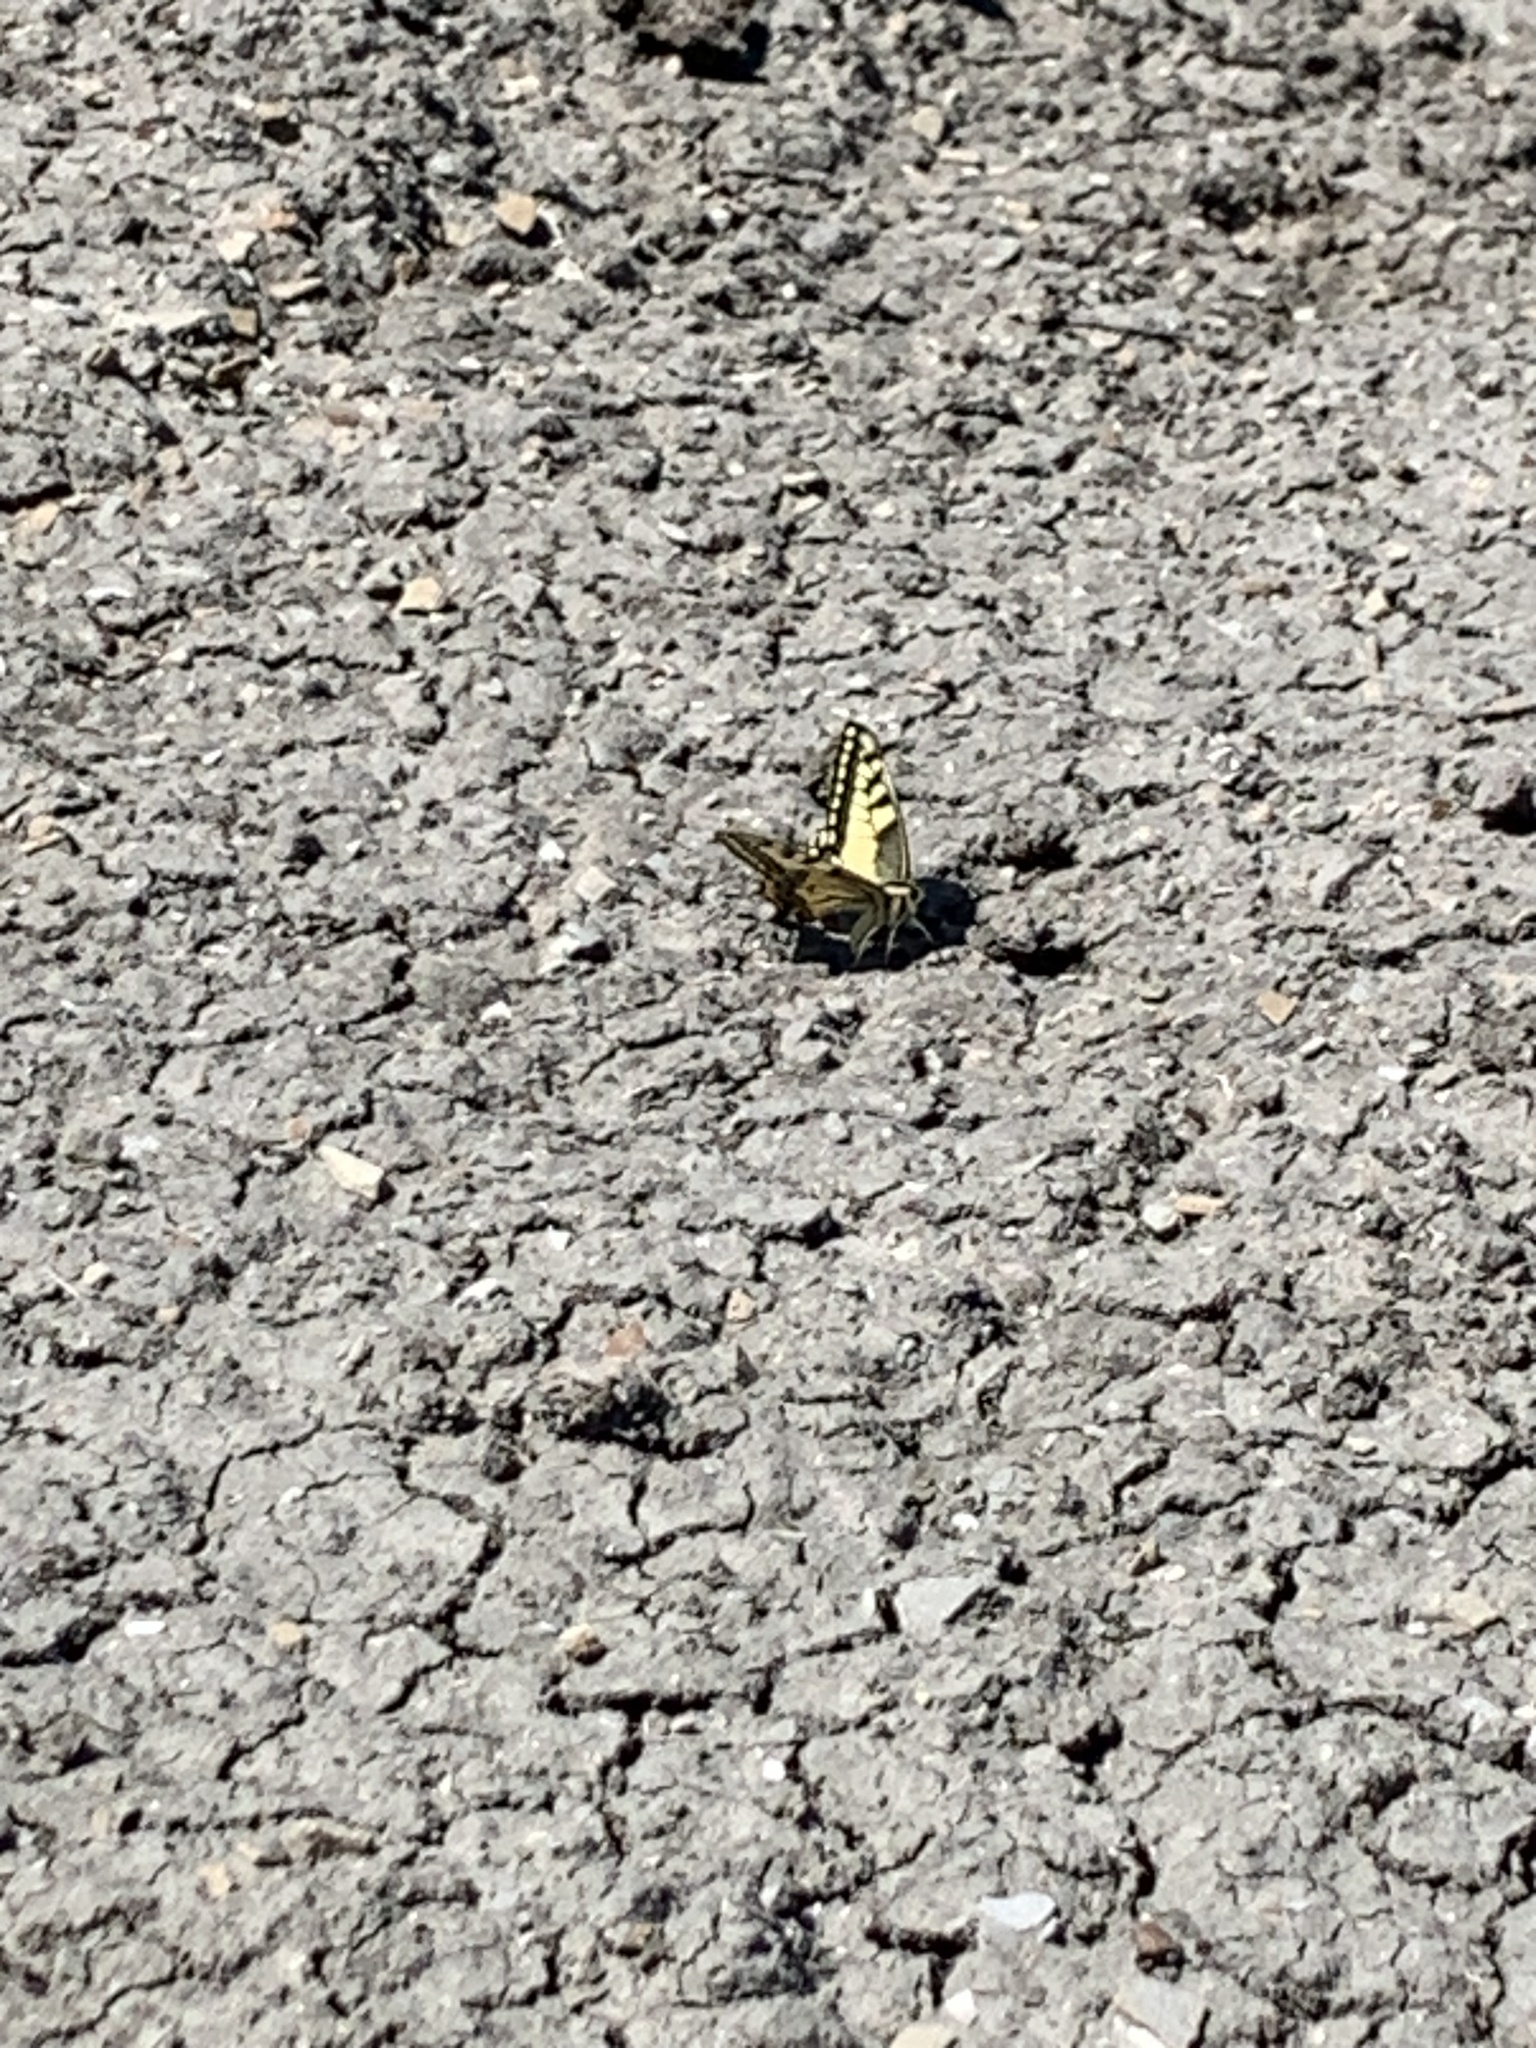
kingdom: Animalia
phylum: Arthropoda
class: Insecta
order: Lepidoptera
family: Papilionidae
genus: Papilio
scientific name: Papilio machaon
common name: Swallowtail
